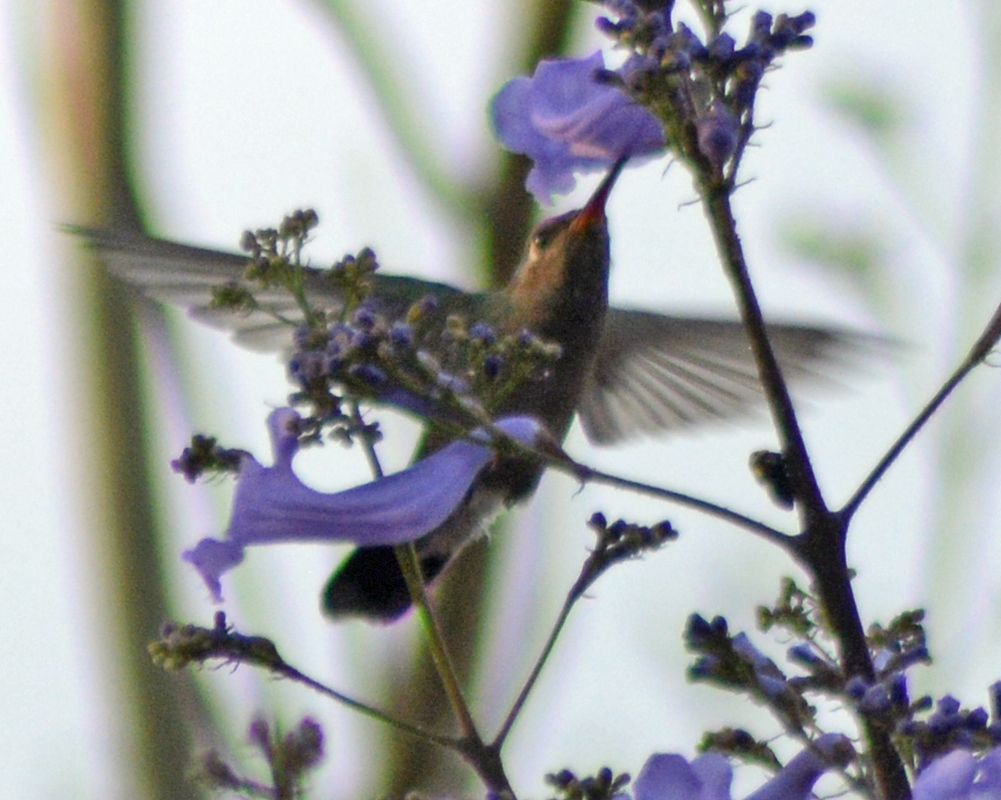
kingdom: Animalia
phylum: Chordata
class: Aves
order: Apodiformes
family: Trochilidae
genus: Cynanthus
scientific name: Cynanthus latirostris
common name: Broad-billed hummingbird
